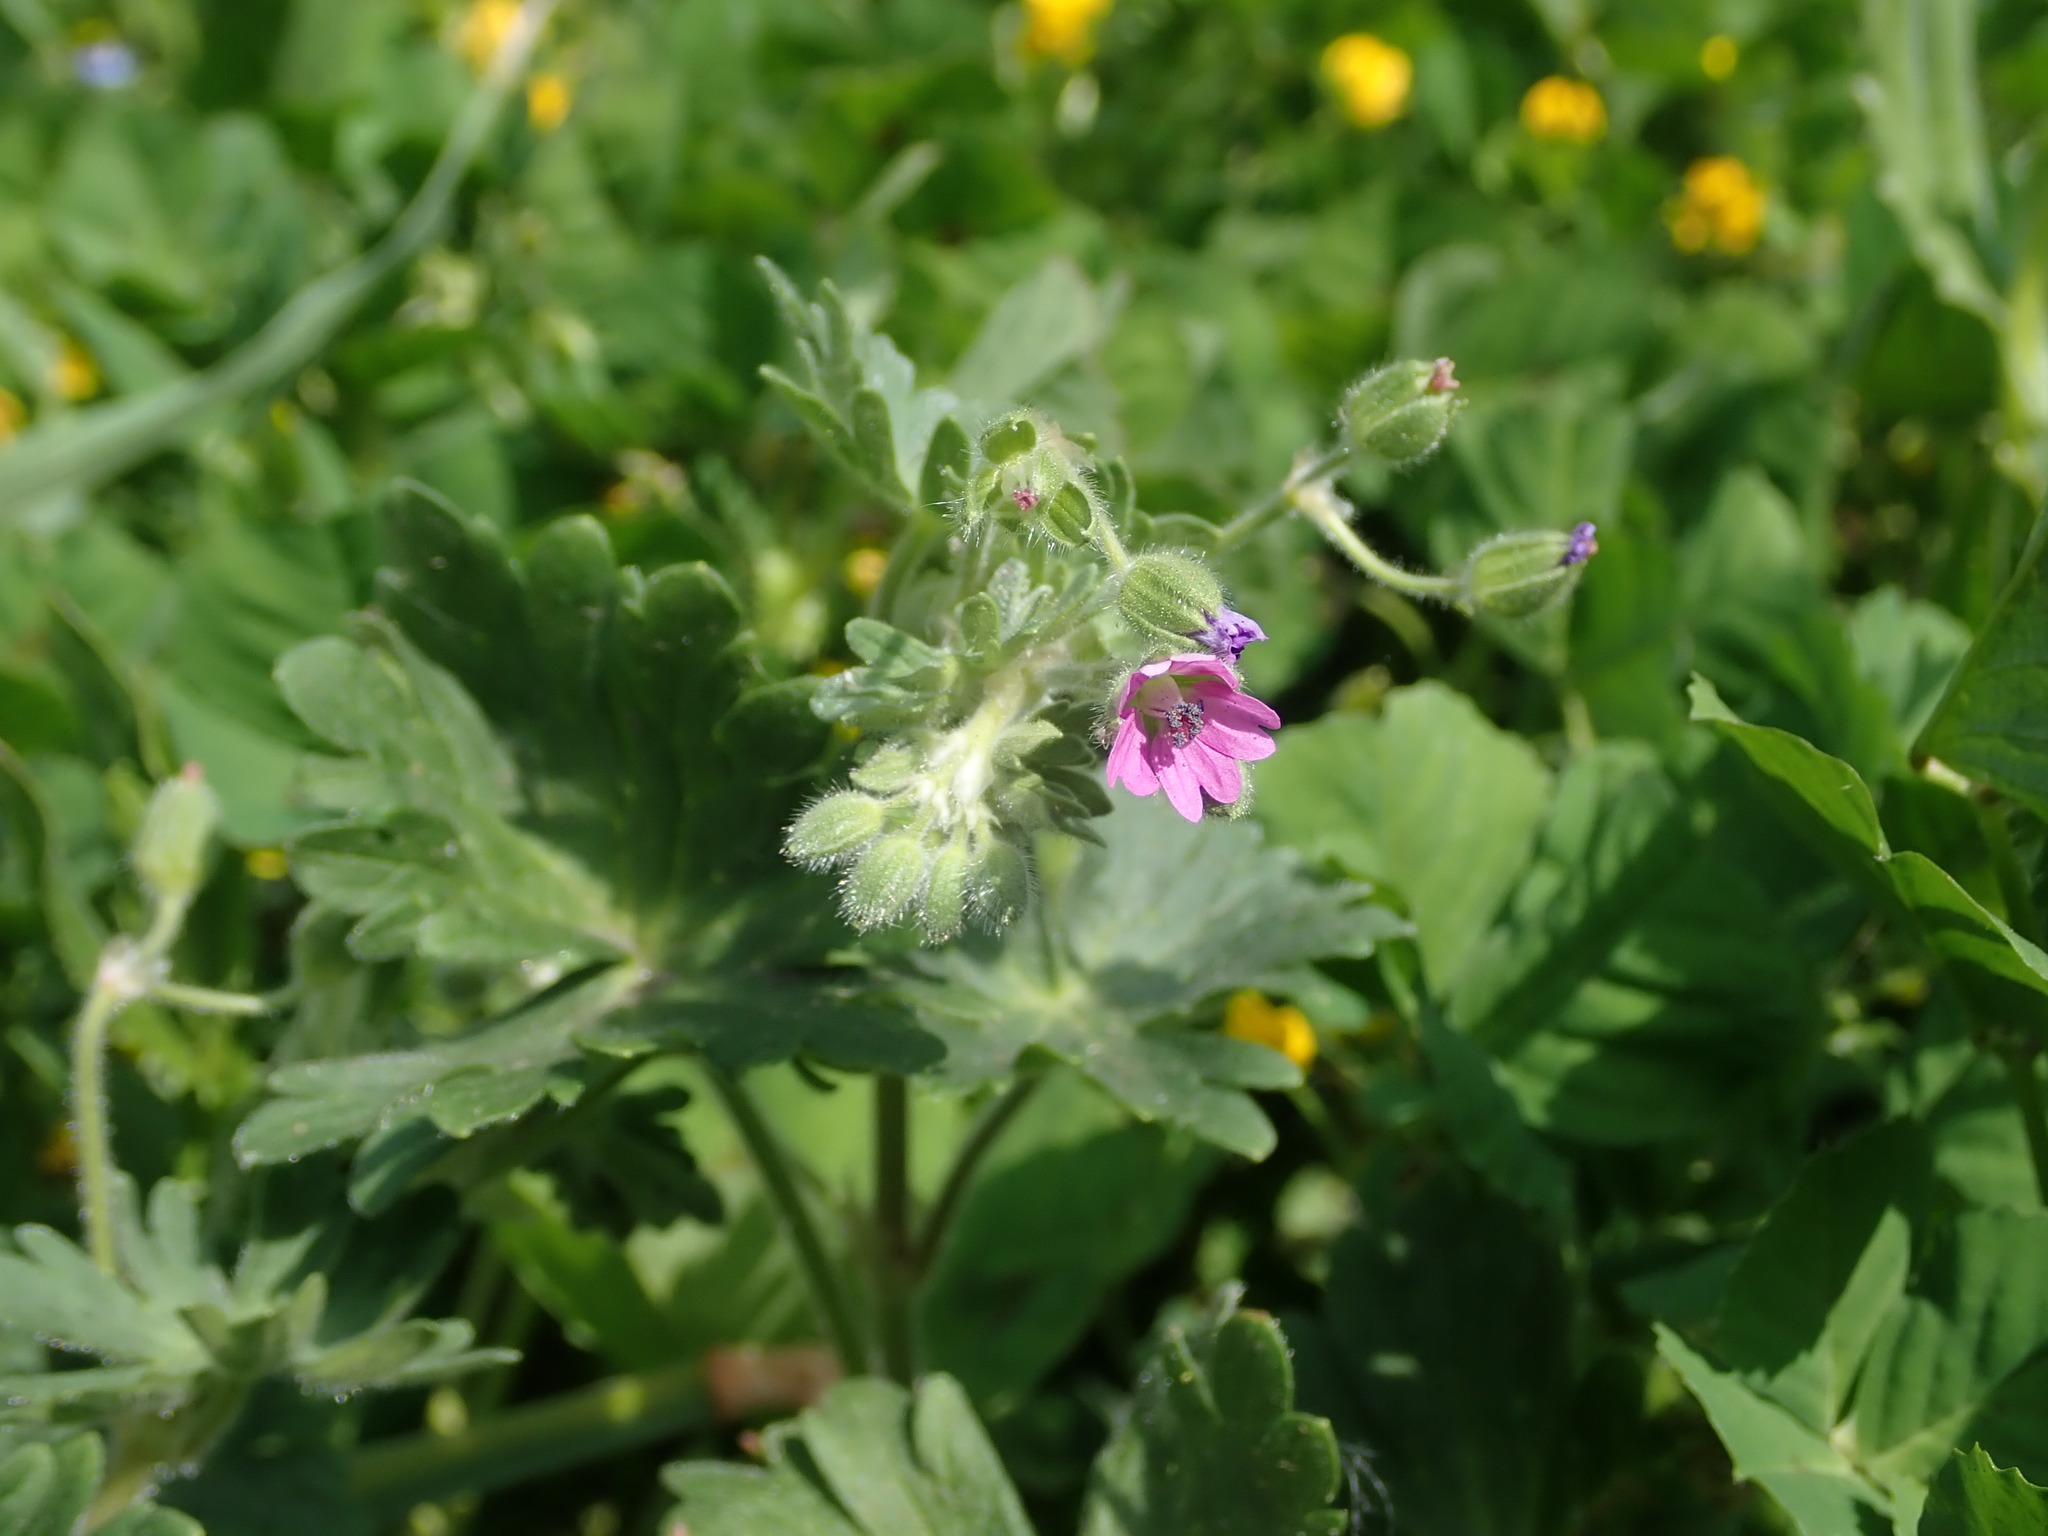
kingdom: Plantae
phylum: Tracheophyta
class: Magnoliopsida
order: Geraniales
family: Geraniaceae
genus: Geranium
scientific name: Geranium molle
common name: Dove's-foot crane's-bill
